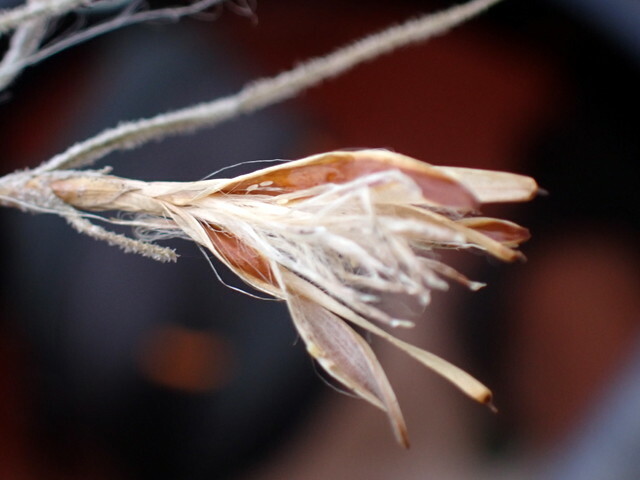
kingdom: Plantae
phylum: Tracheophyta
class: Liliopsida
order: Poales
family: Bromeliaceae
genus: Tillandsia
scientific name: Tillandsia usneoides
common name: Spanish moss
